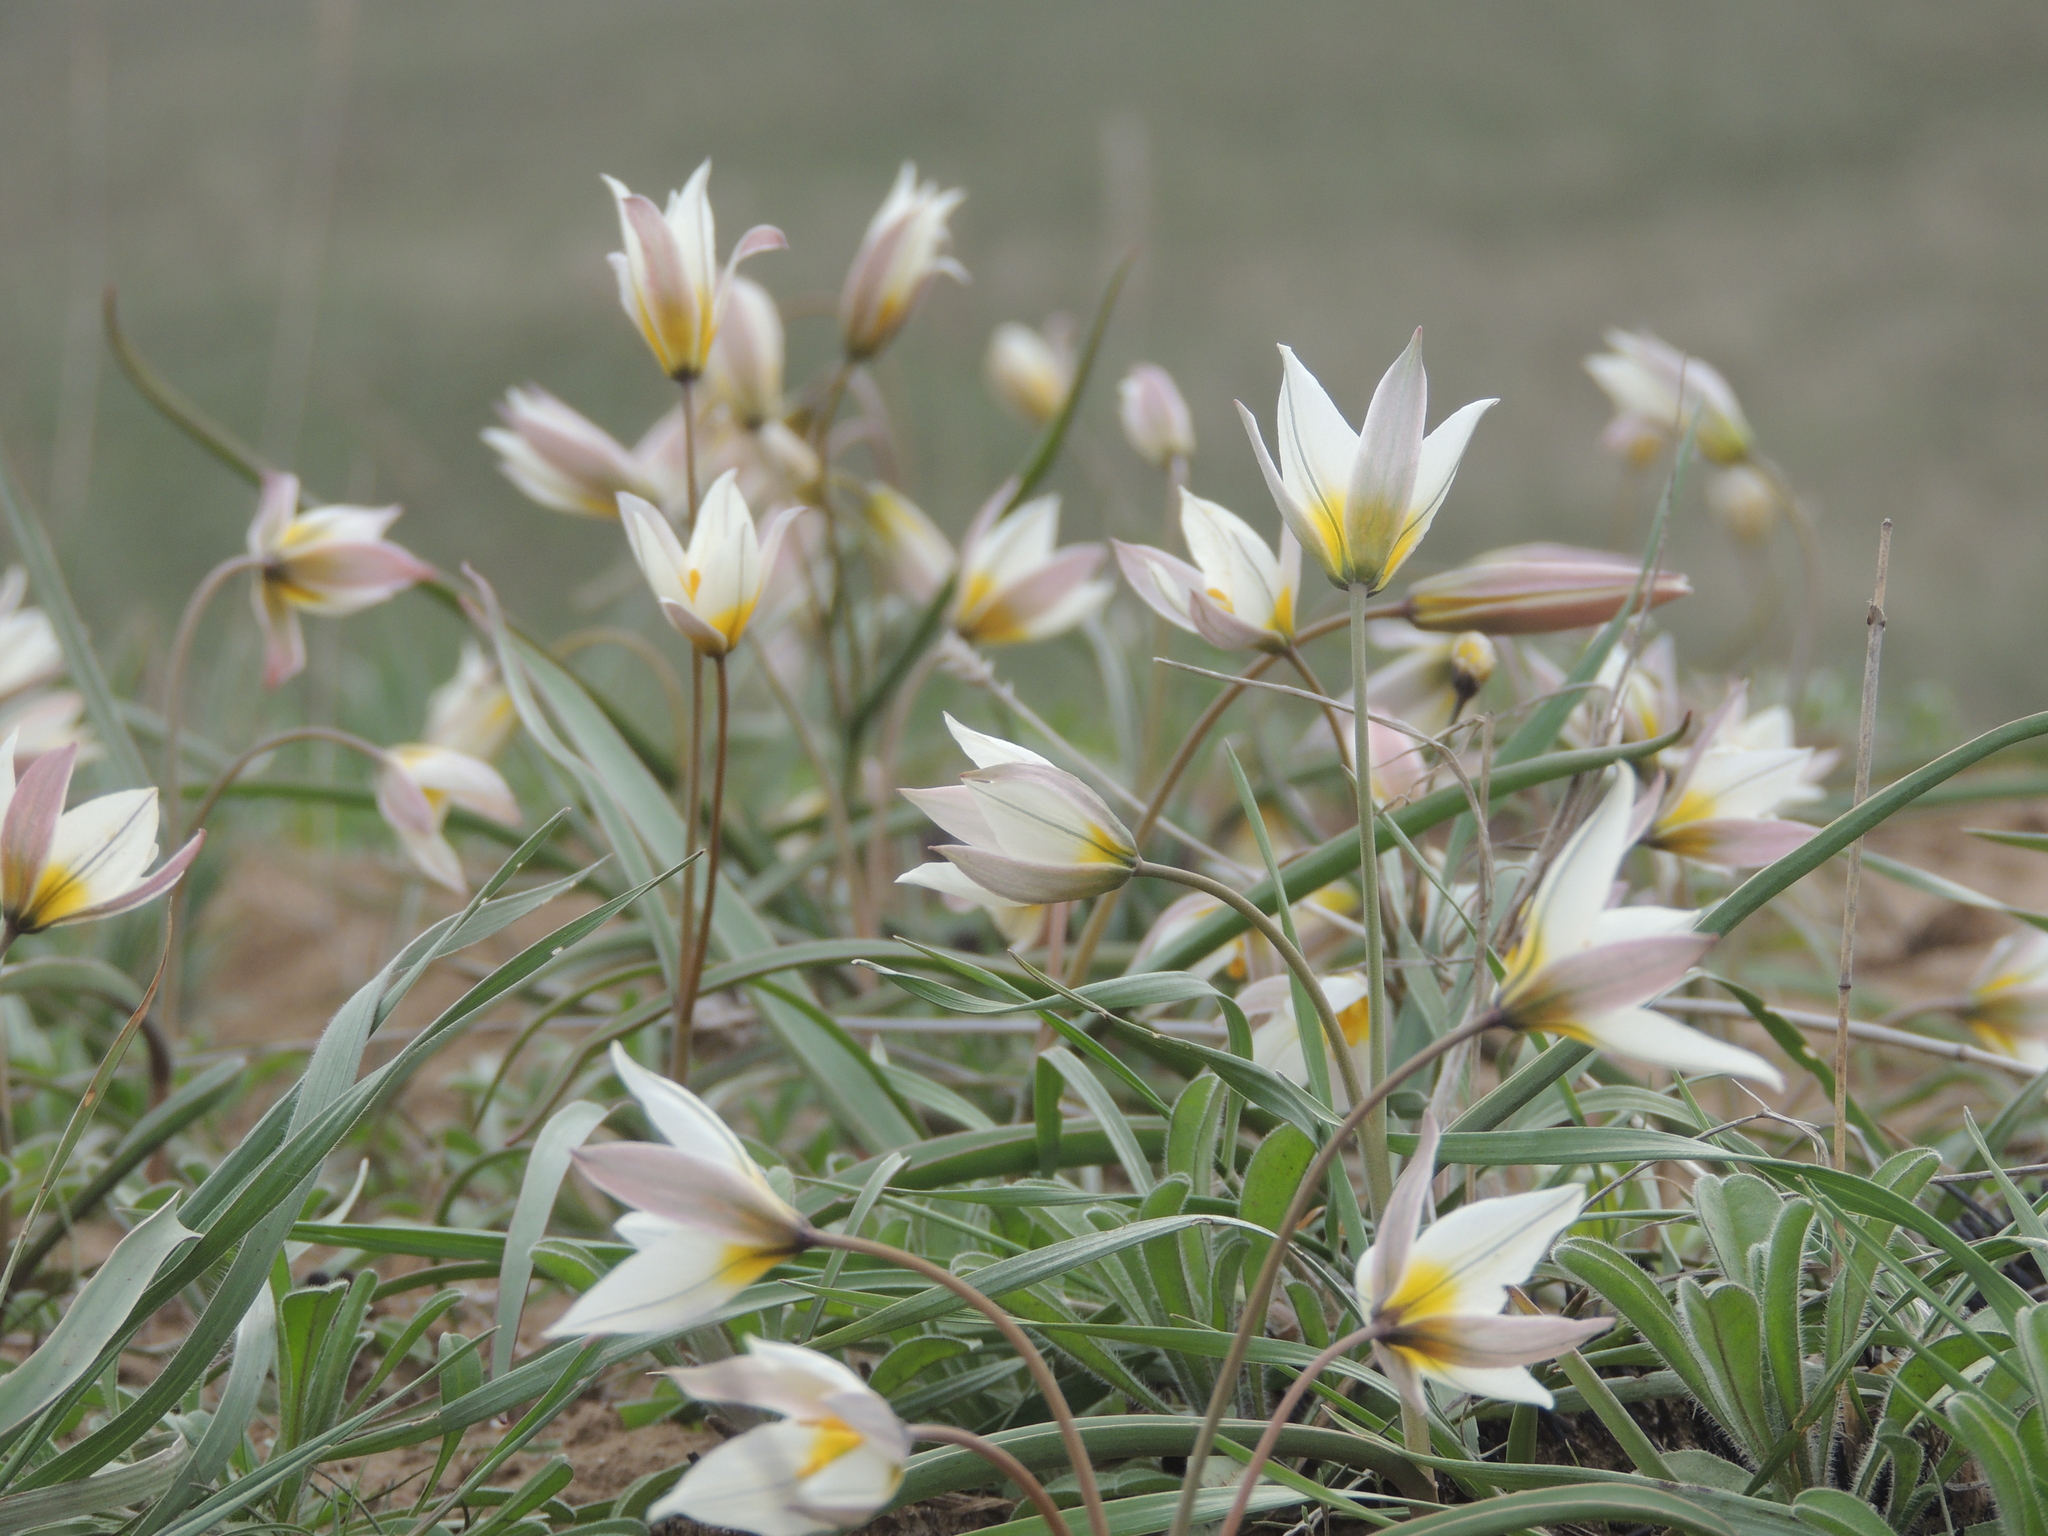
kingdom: Plantae
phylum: Tracheophyta
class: Liliopsida
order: Liliales
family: Liliaceae
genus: Tulipa
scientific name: Tulipa biflora
